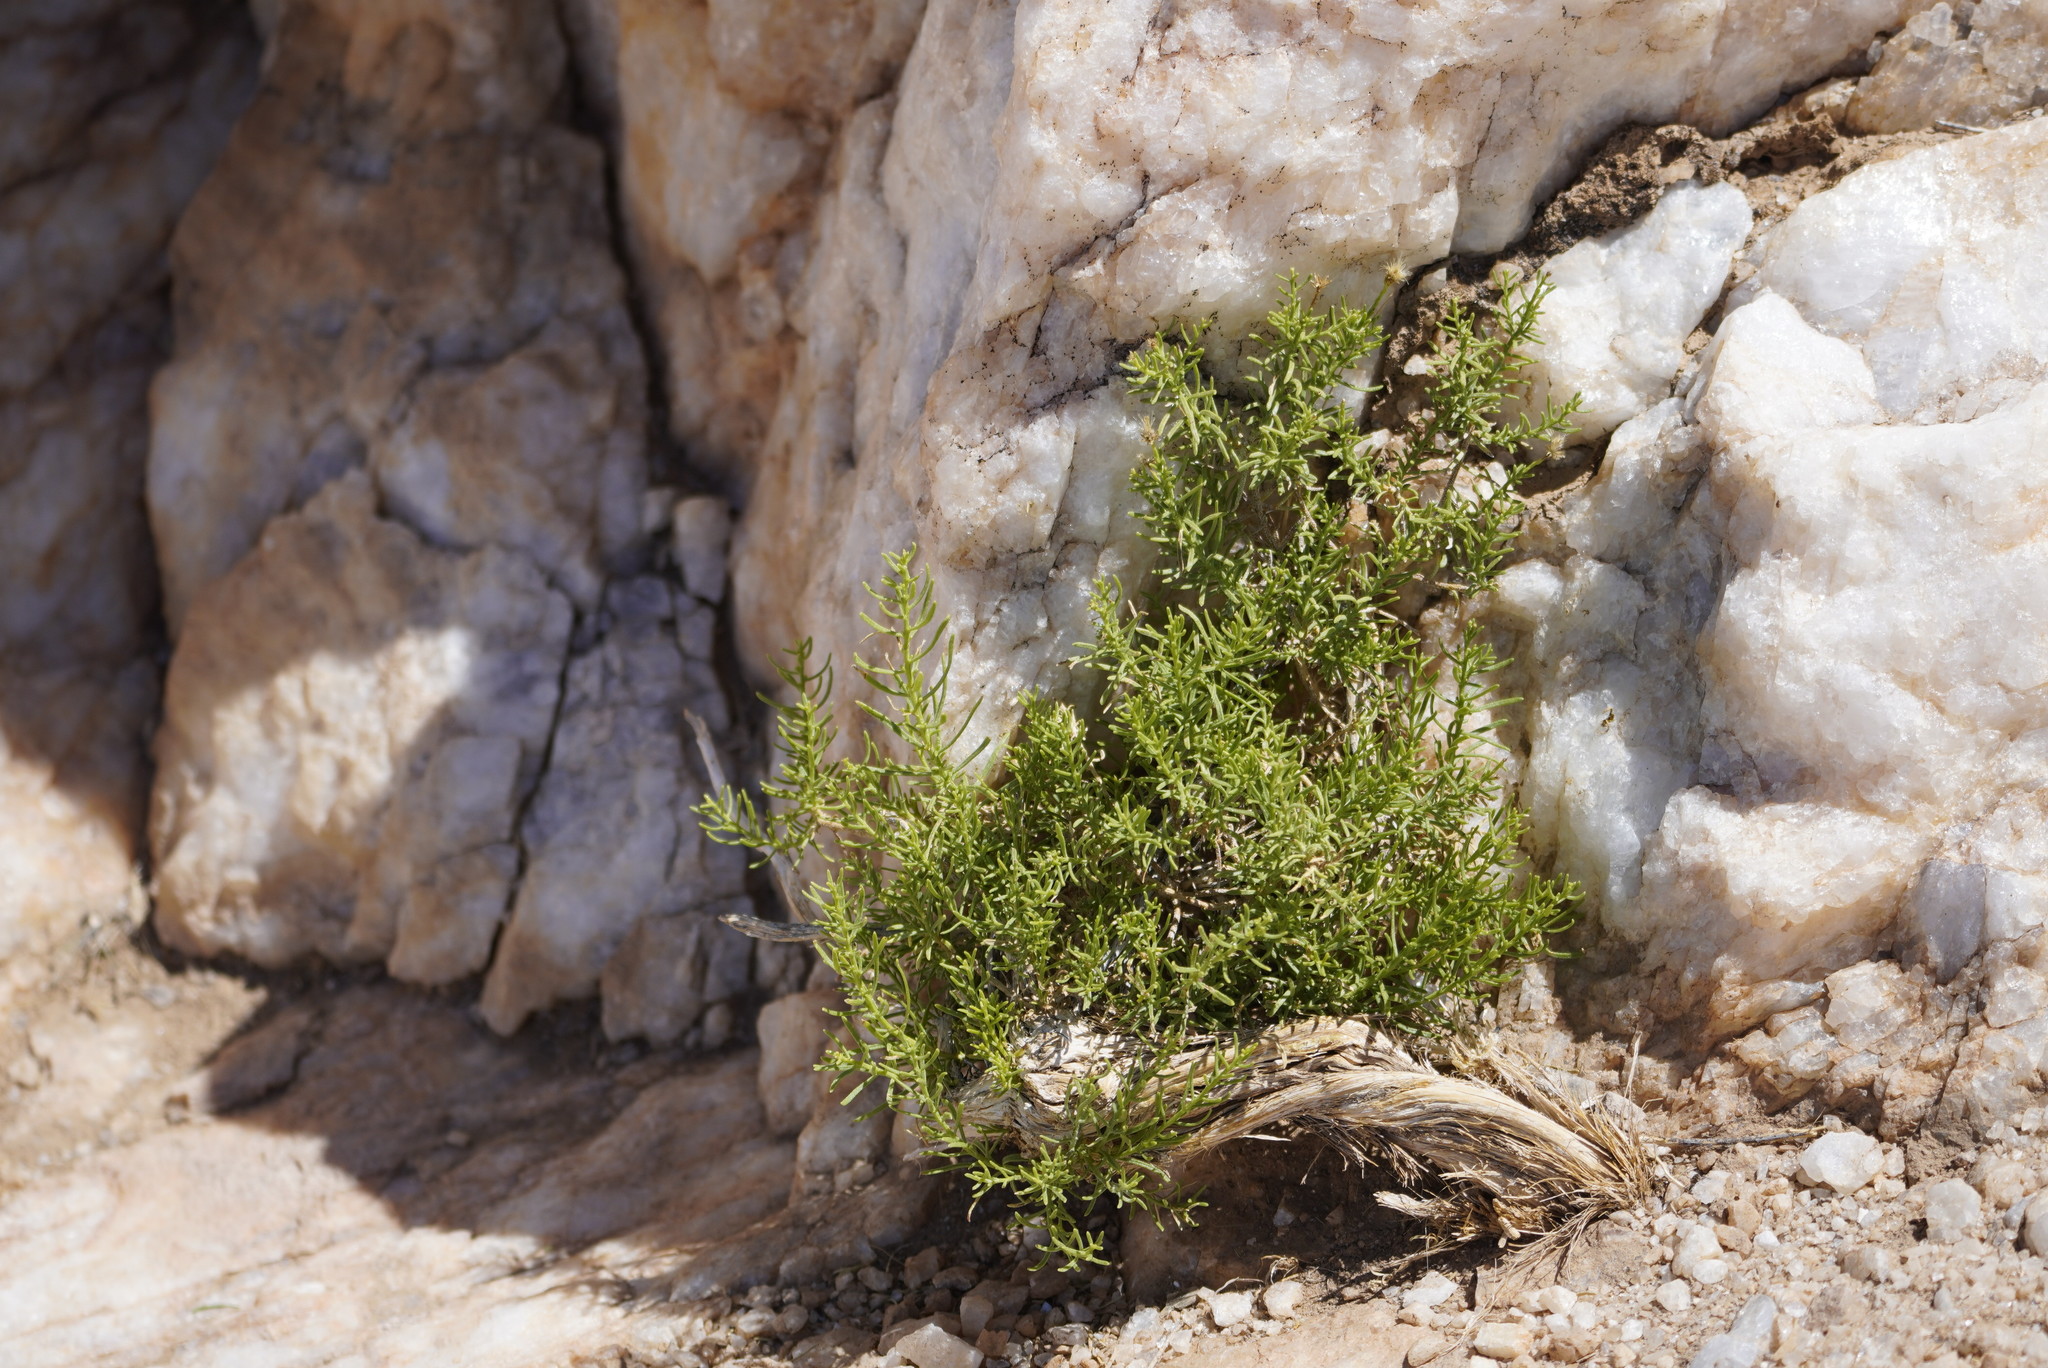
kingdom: Plantae
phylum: Tracheophyta
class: Magnoliopsida
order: Asterales
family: Asteraceae
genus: Ericameria
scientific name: Ericameria laricifolia
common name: Turpentine-bush
